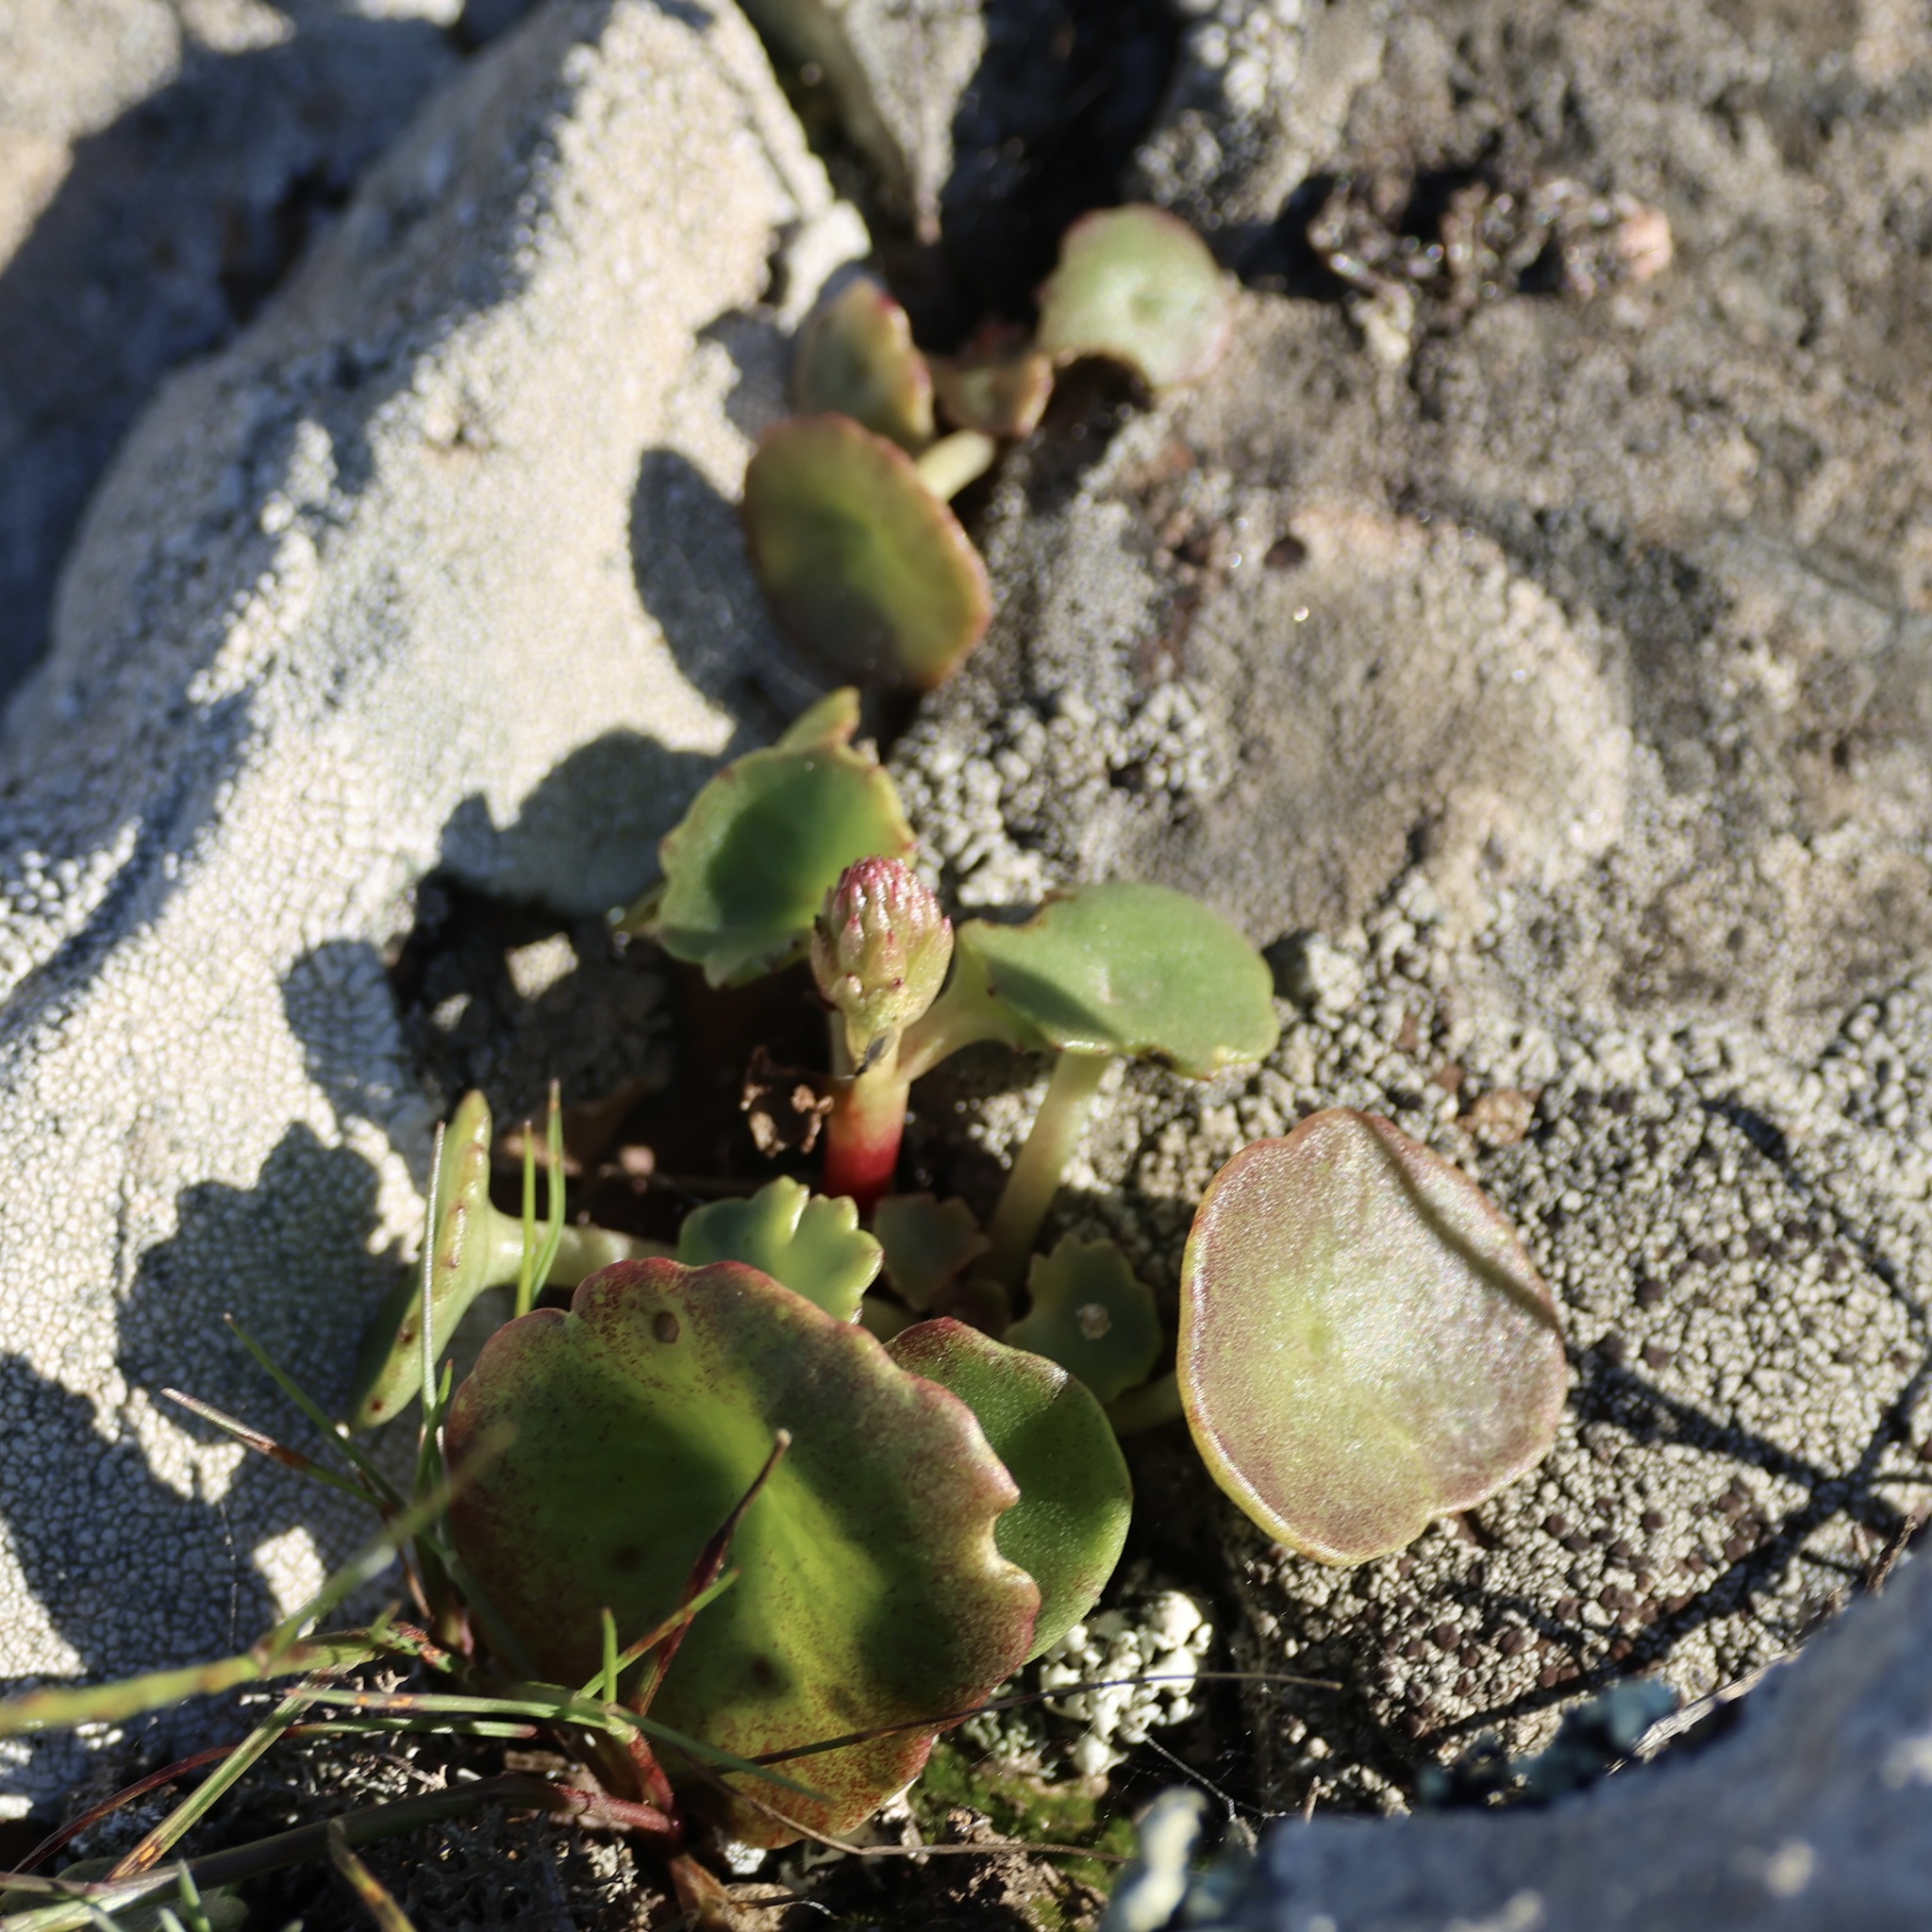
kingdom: Plantae
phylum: Tracheophyta
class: Magnoliopsida
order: Saxifragales
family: Crassulaceae
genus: Umbilicus
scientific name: Umbilicus rupestris
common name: Navelwort
